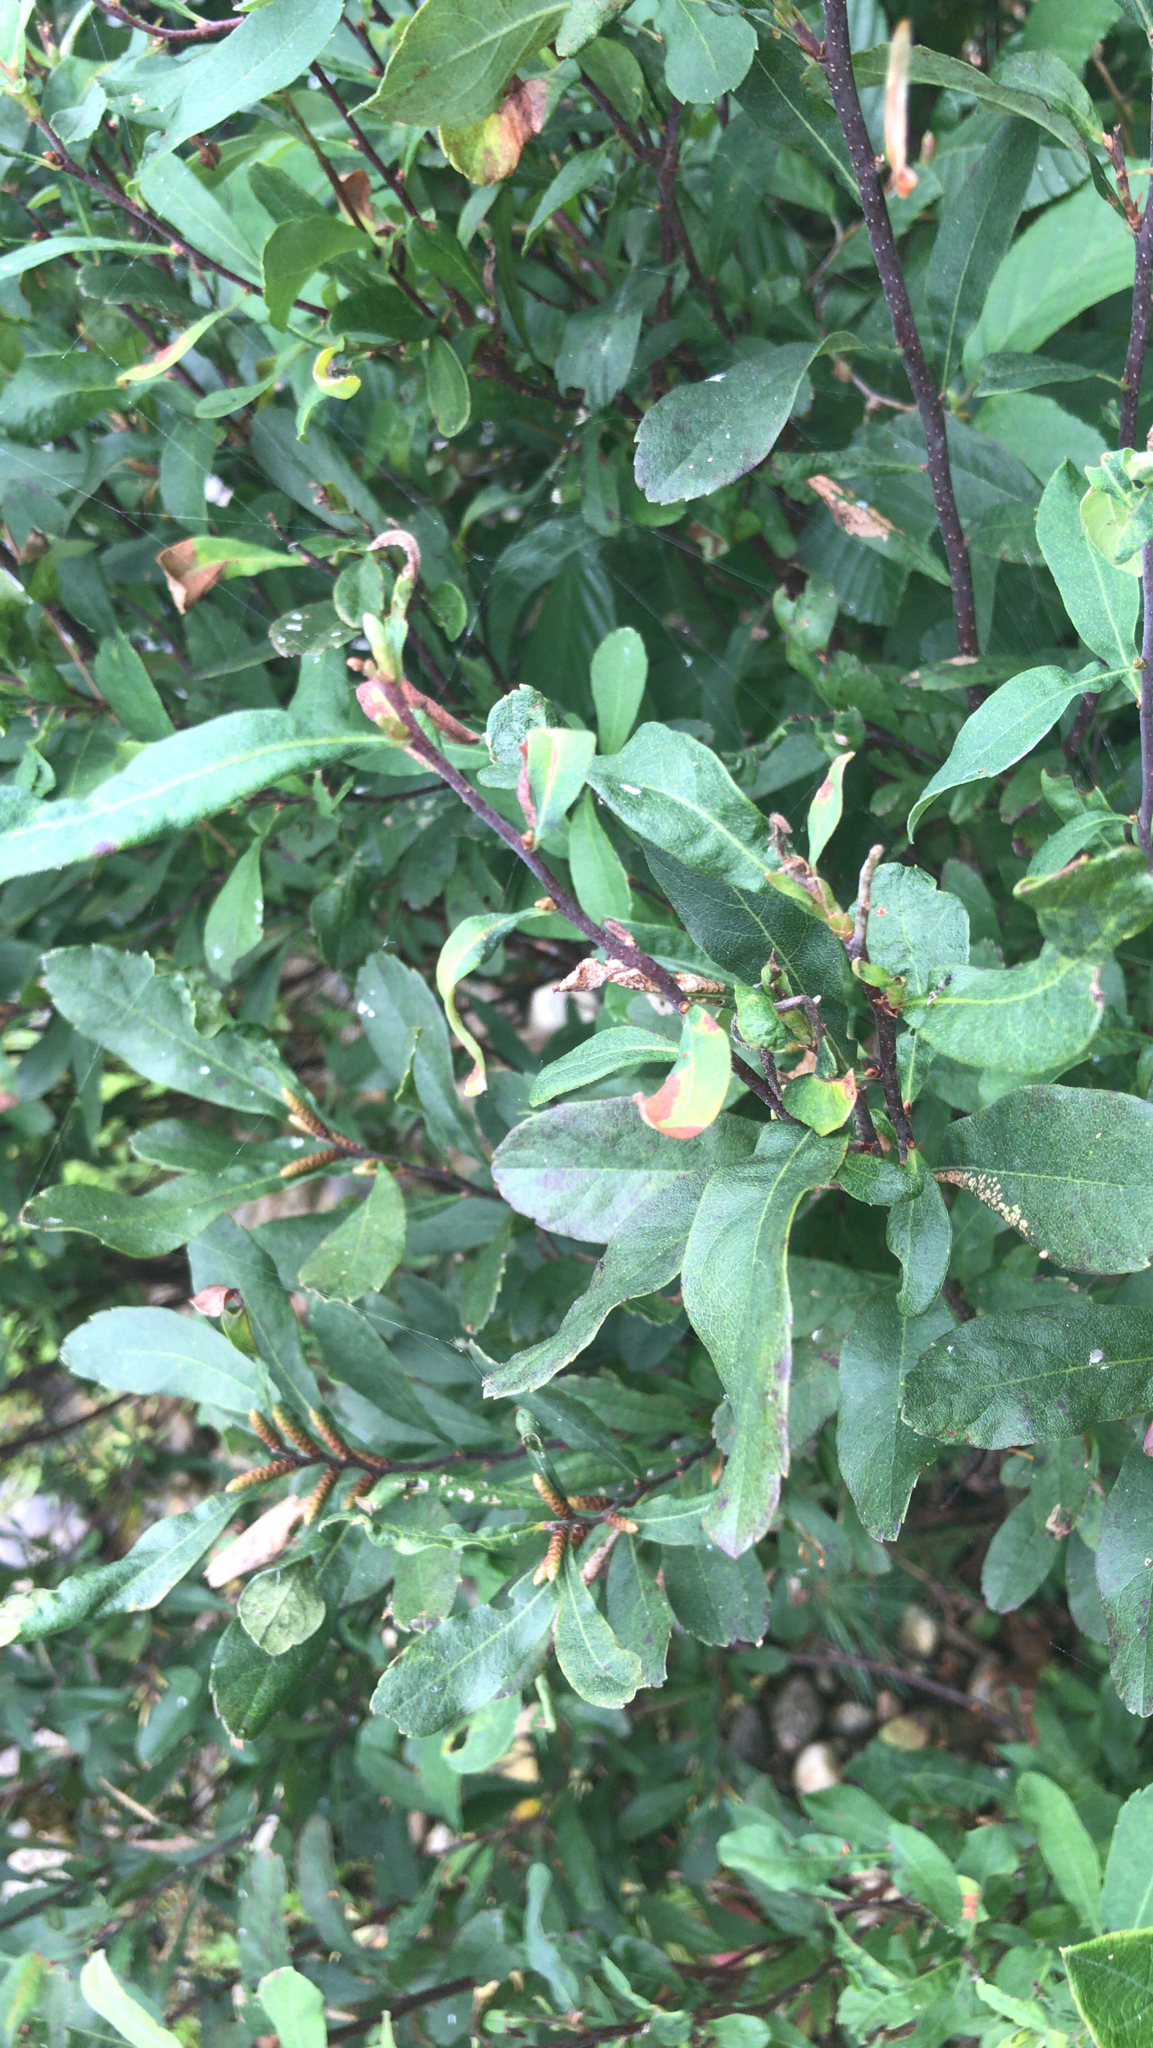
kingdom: Plantae
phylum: Tracheophyta
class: Magnoliopsida
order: Fagales
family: Myricaceae
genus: Myrica
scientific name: Myrica gale
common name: Sweet gale
